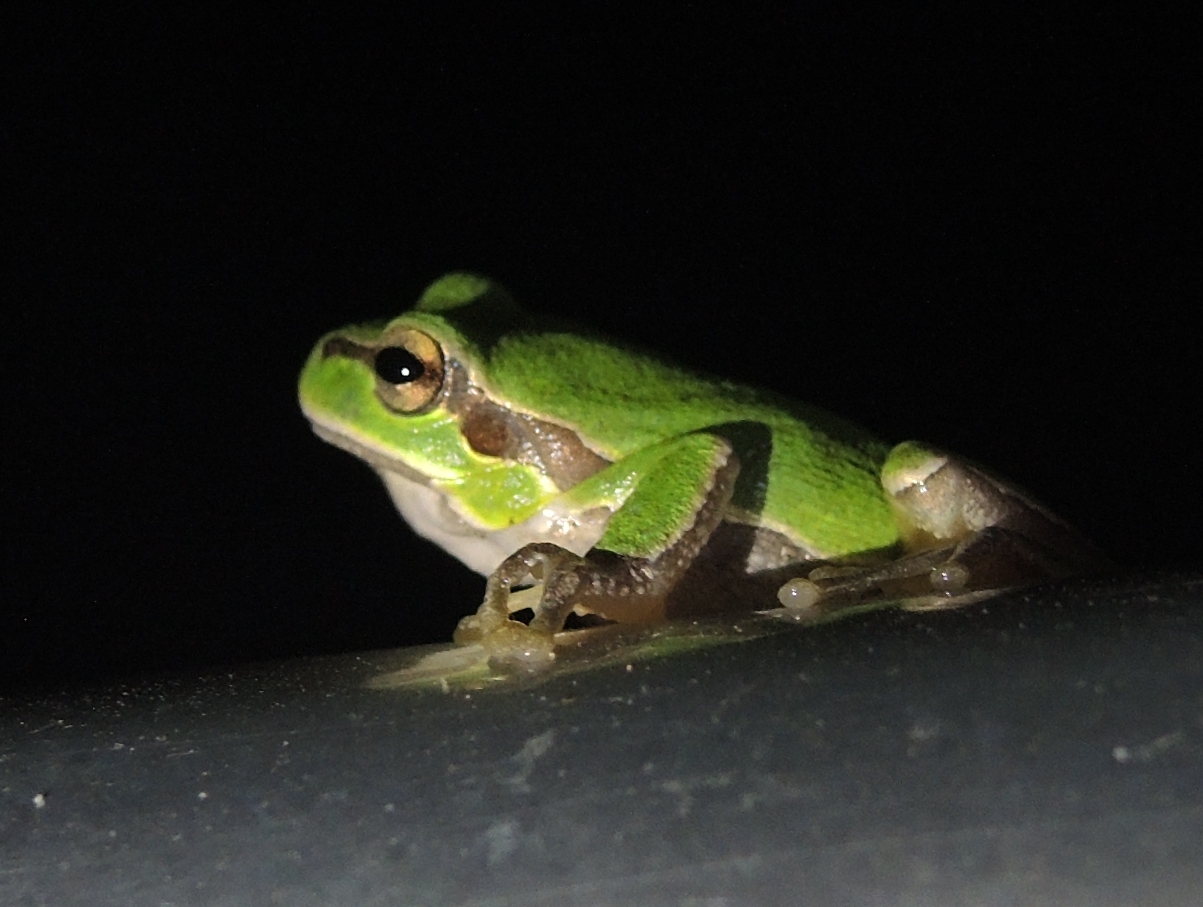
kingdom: Animalia
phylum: Chordata
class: Amphibia
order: Anura
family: Hylidae
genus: Hyla
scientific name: Hyla orientalis
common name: Caucasian treefrog
